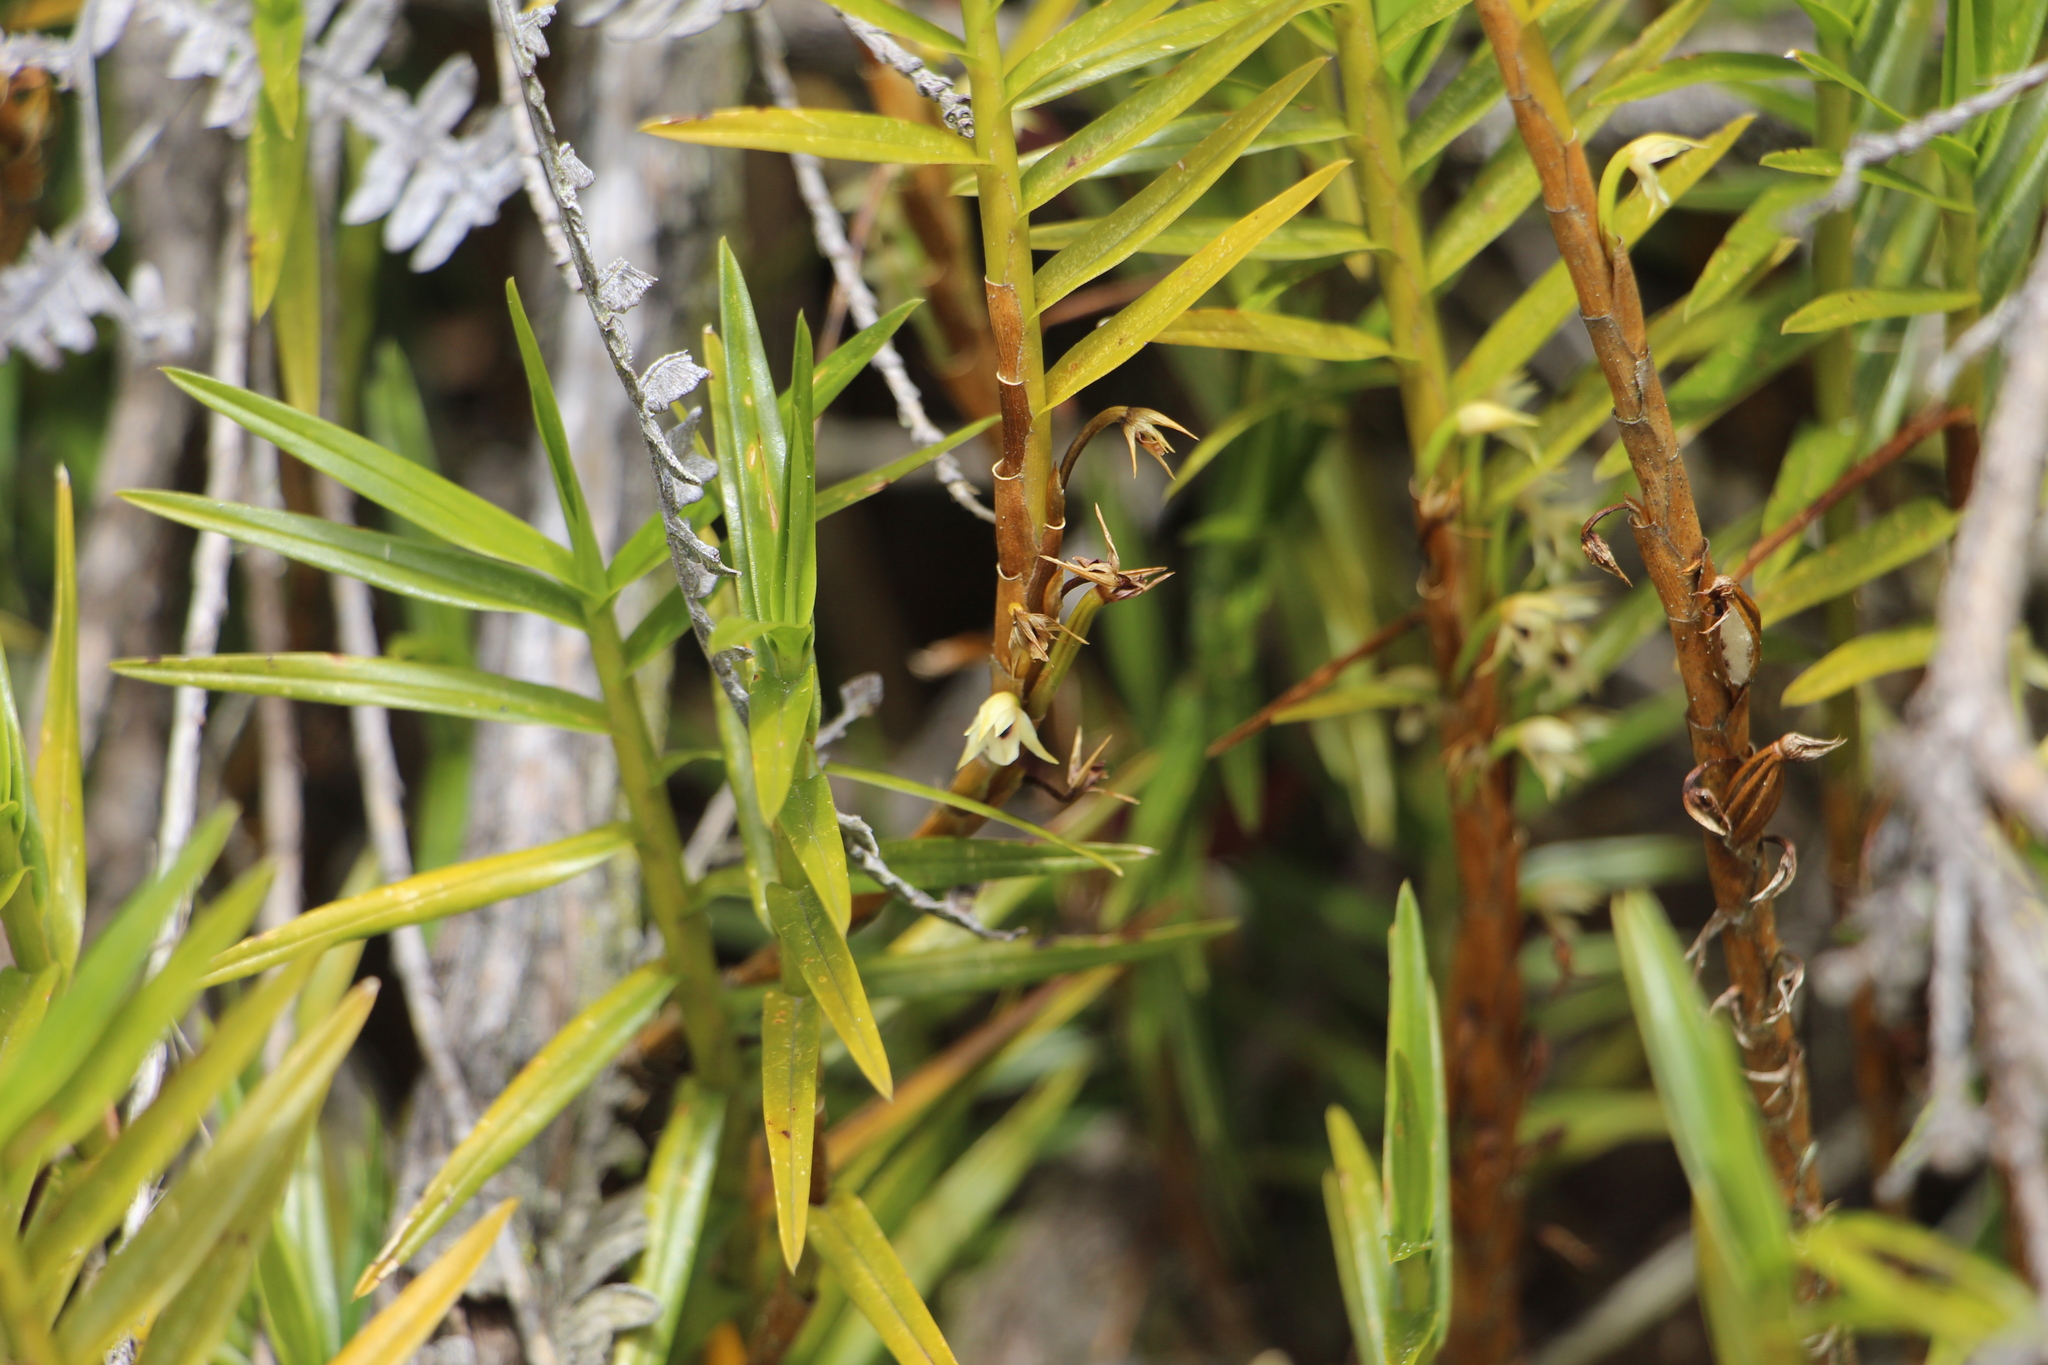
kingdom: Plantae
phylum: Tracheophyta
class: Liliopsida
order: Asparagales
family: Orchidaceae
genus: Maxillaria
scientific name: Maxillaria graminifolia
